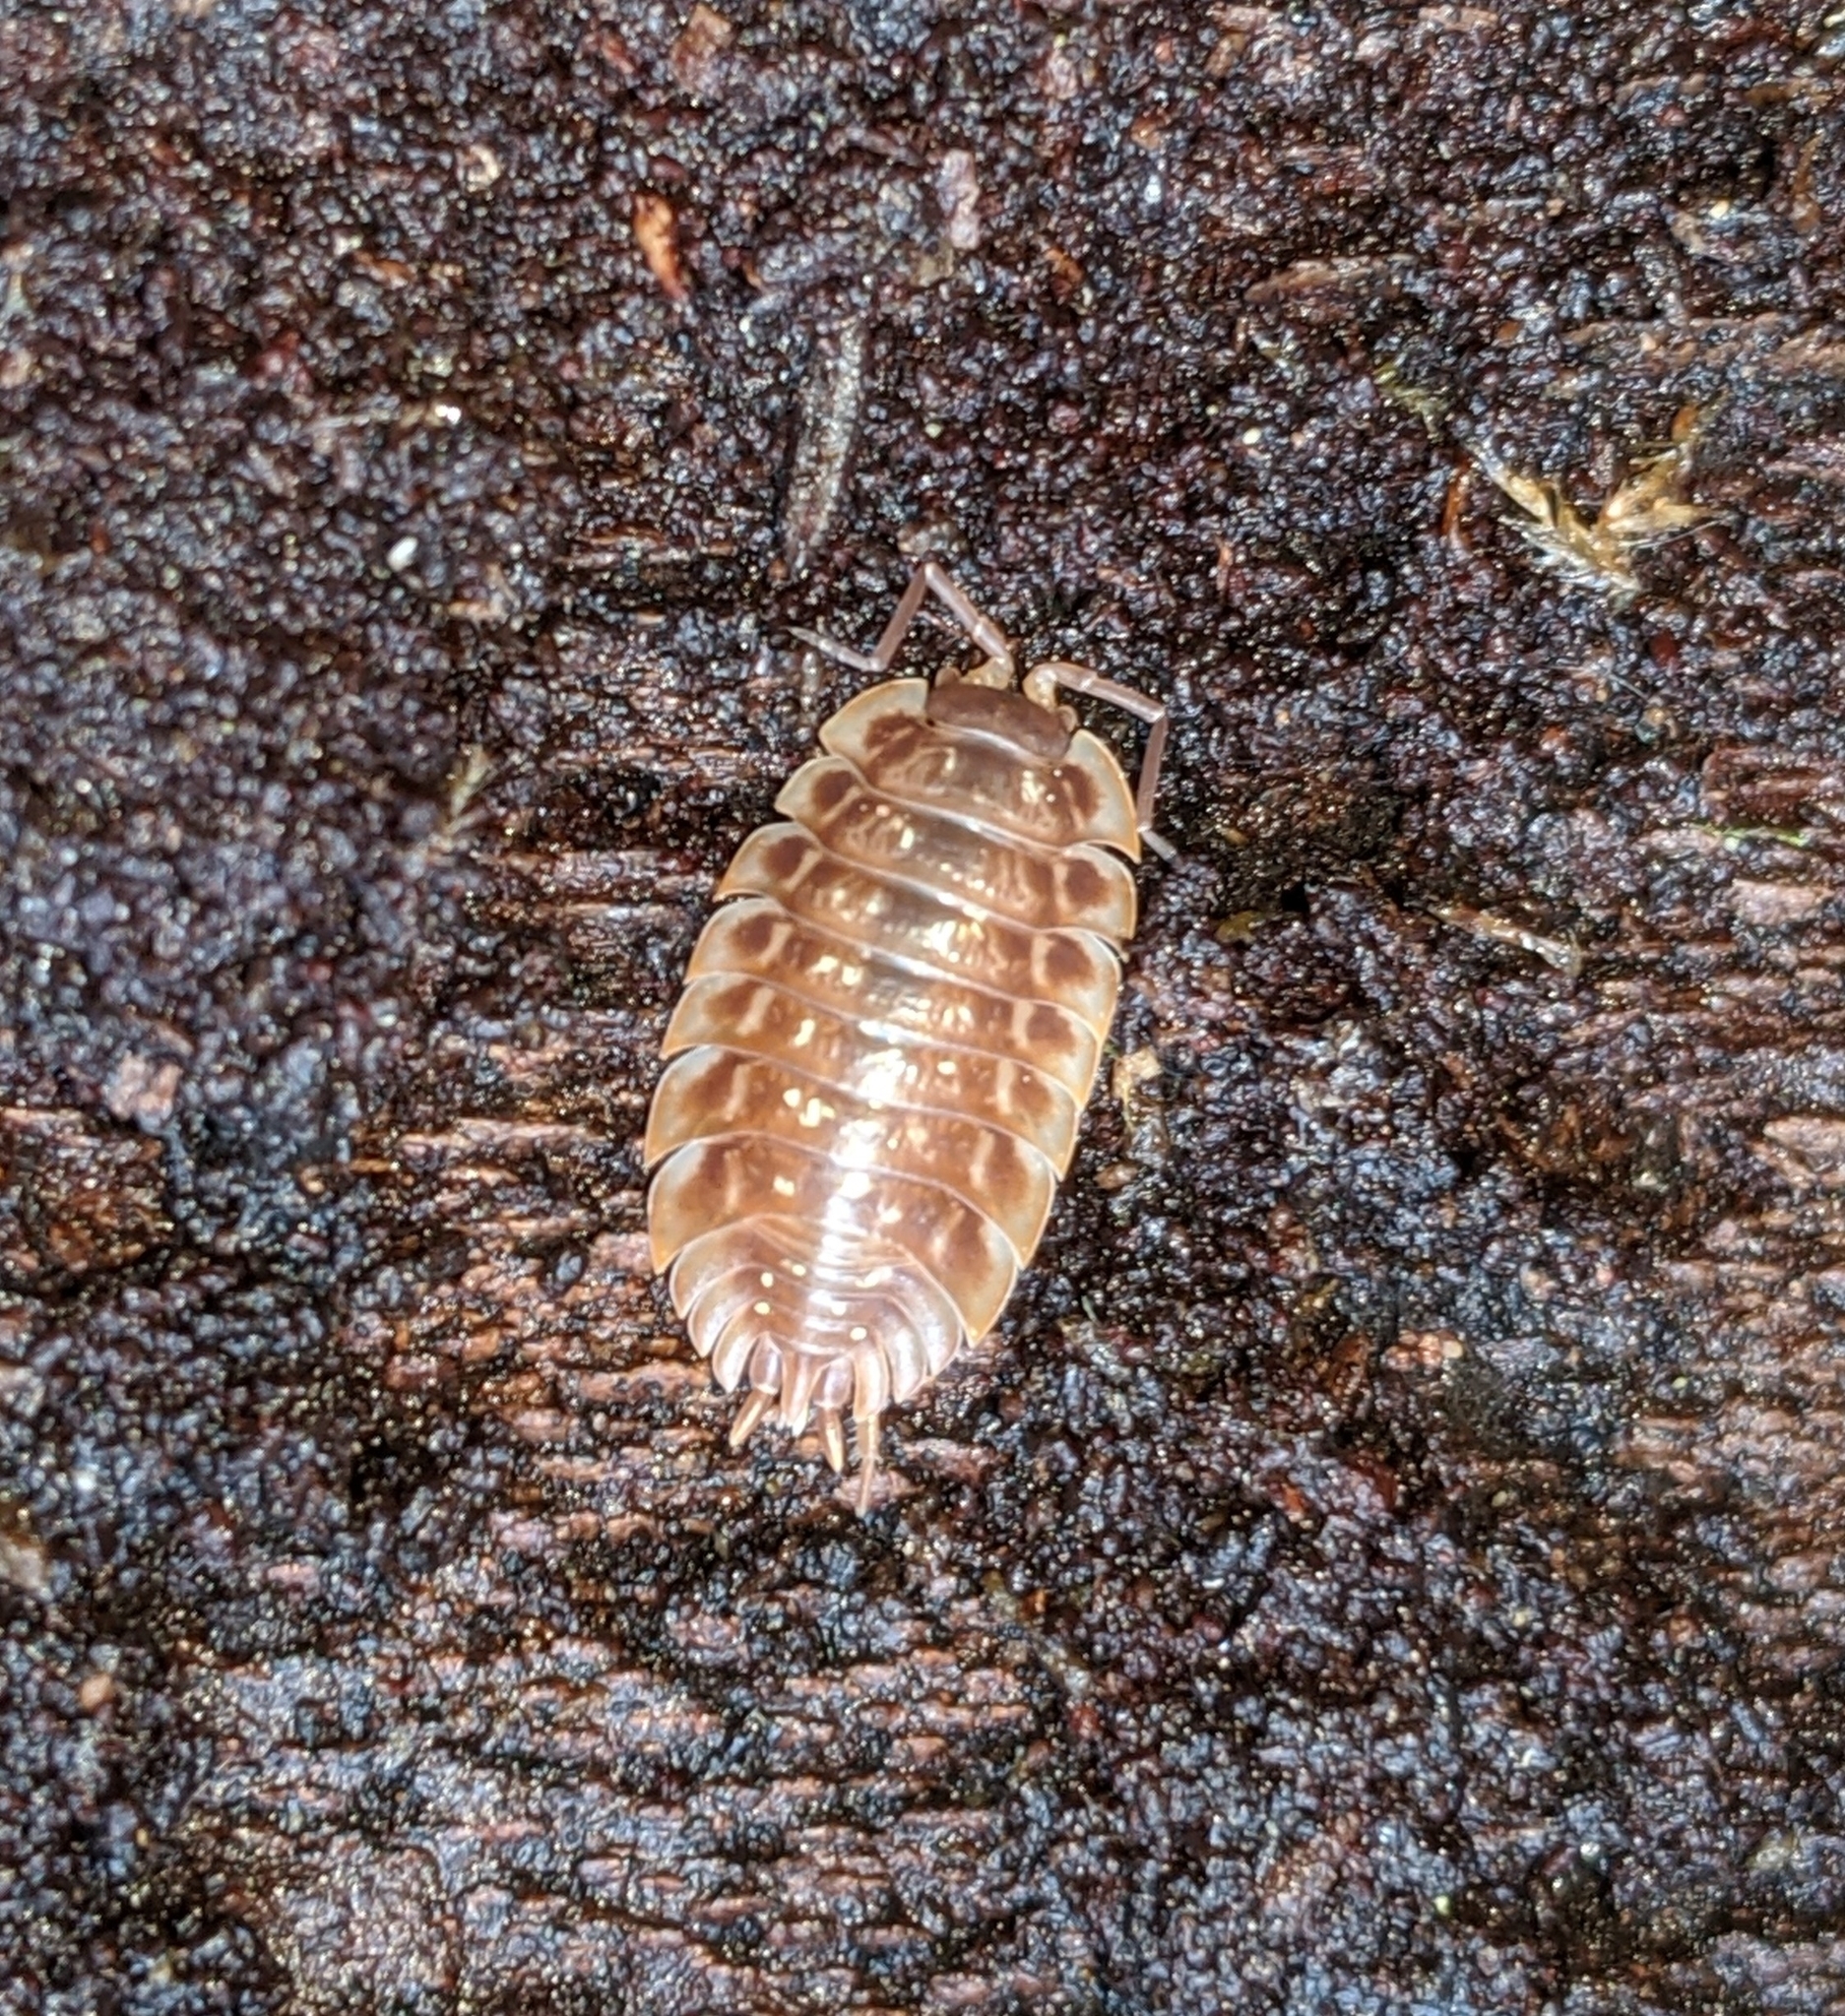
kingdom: Animalia
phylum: Arthropoda
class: Malacostraca
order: Isopoda
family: Oniscidae
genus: Oniscus
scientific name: Oniscus asellus
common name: Common shiny woodlouse
